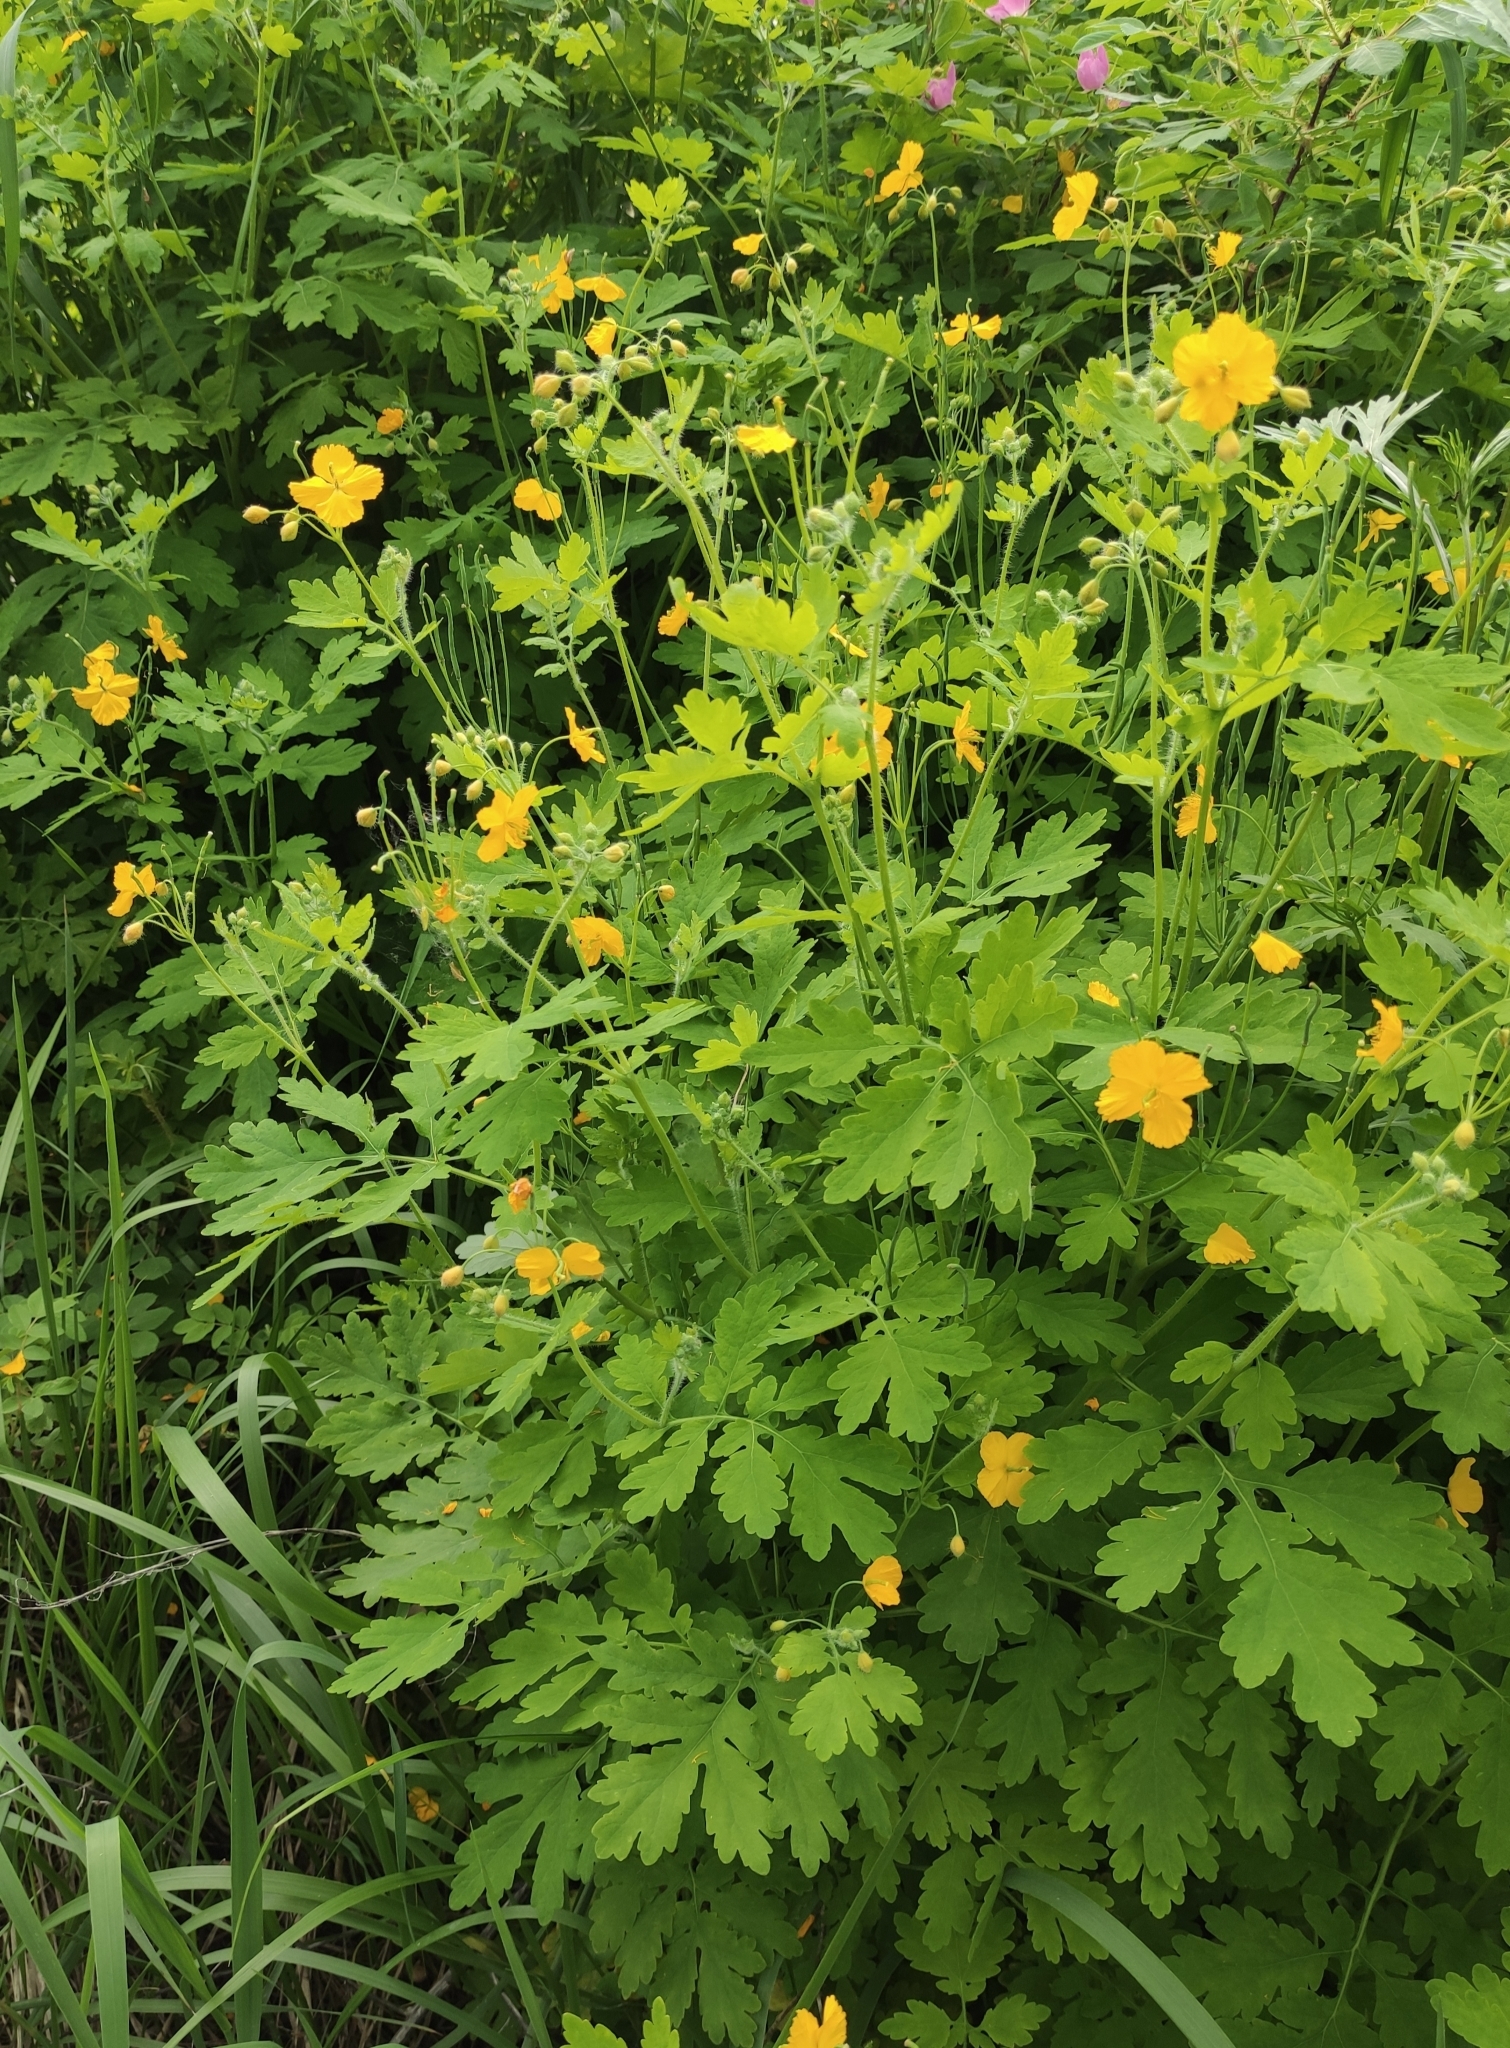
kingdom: Plantae
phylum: Tracheophyta
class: Magnoliopsida
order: Ranunculales
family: Papaveraceae
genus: Chelidonium
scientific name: Chelidonium majus
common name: Greater celandine
